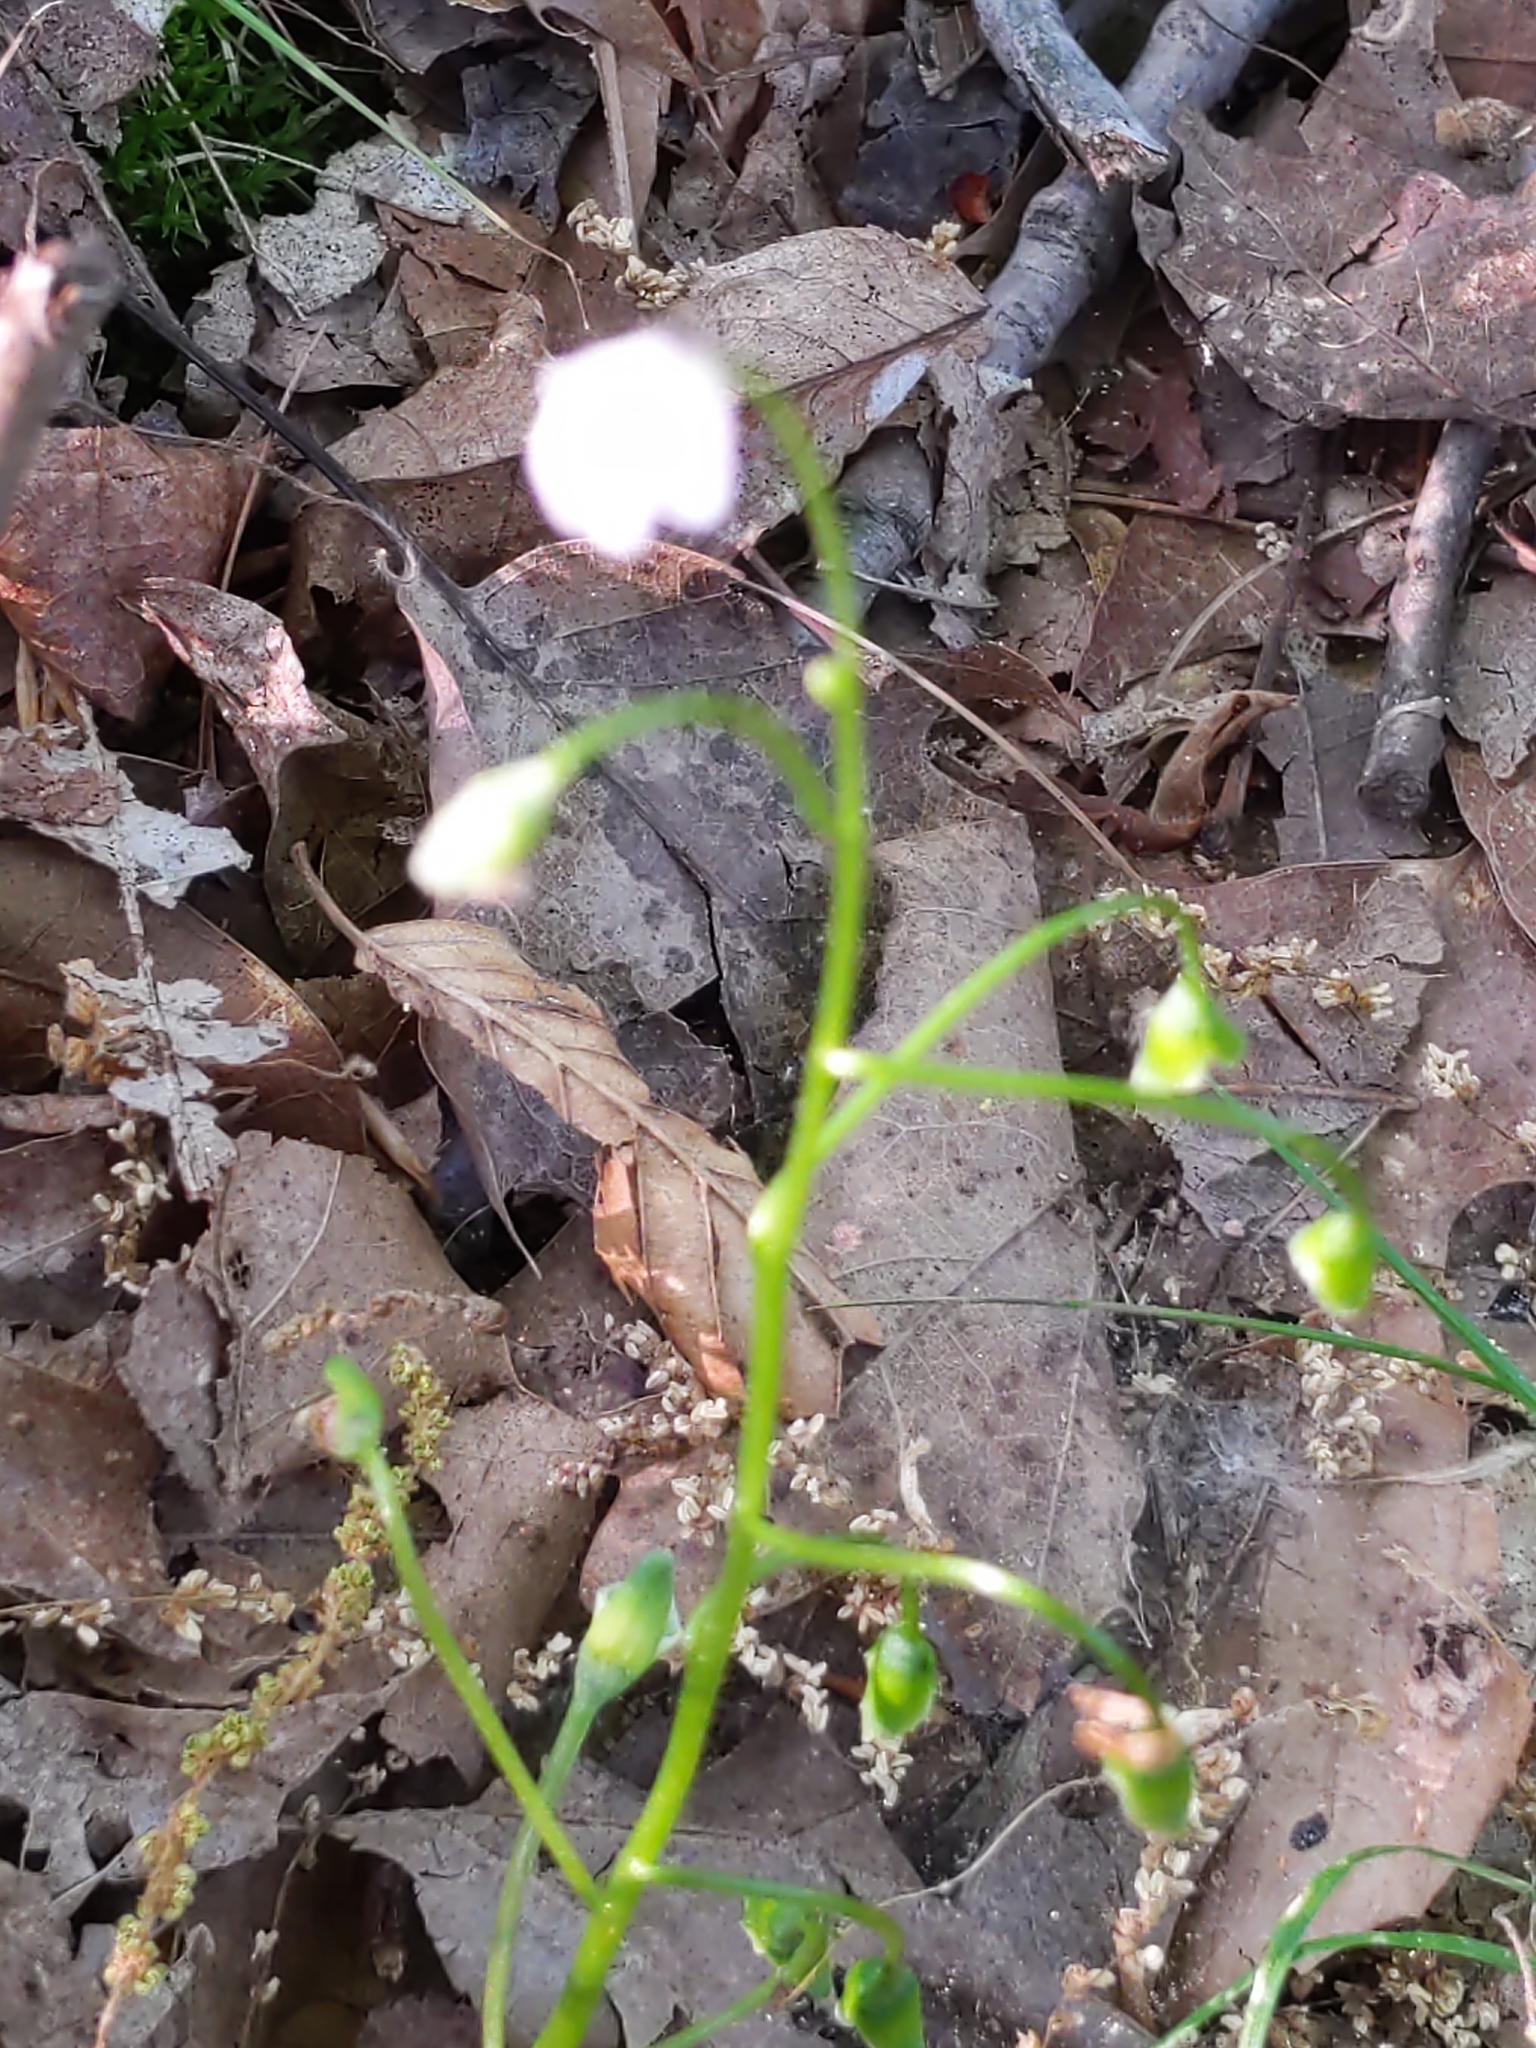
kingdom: Plantae
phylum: Tracheophyta
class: Magnoliopsida
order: Caryophyllales
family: Montiaceae
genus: Claytonia
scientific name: Claytonia virginica
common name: Virginia springbeauty
